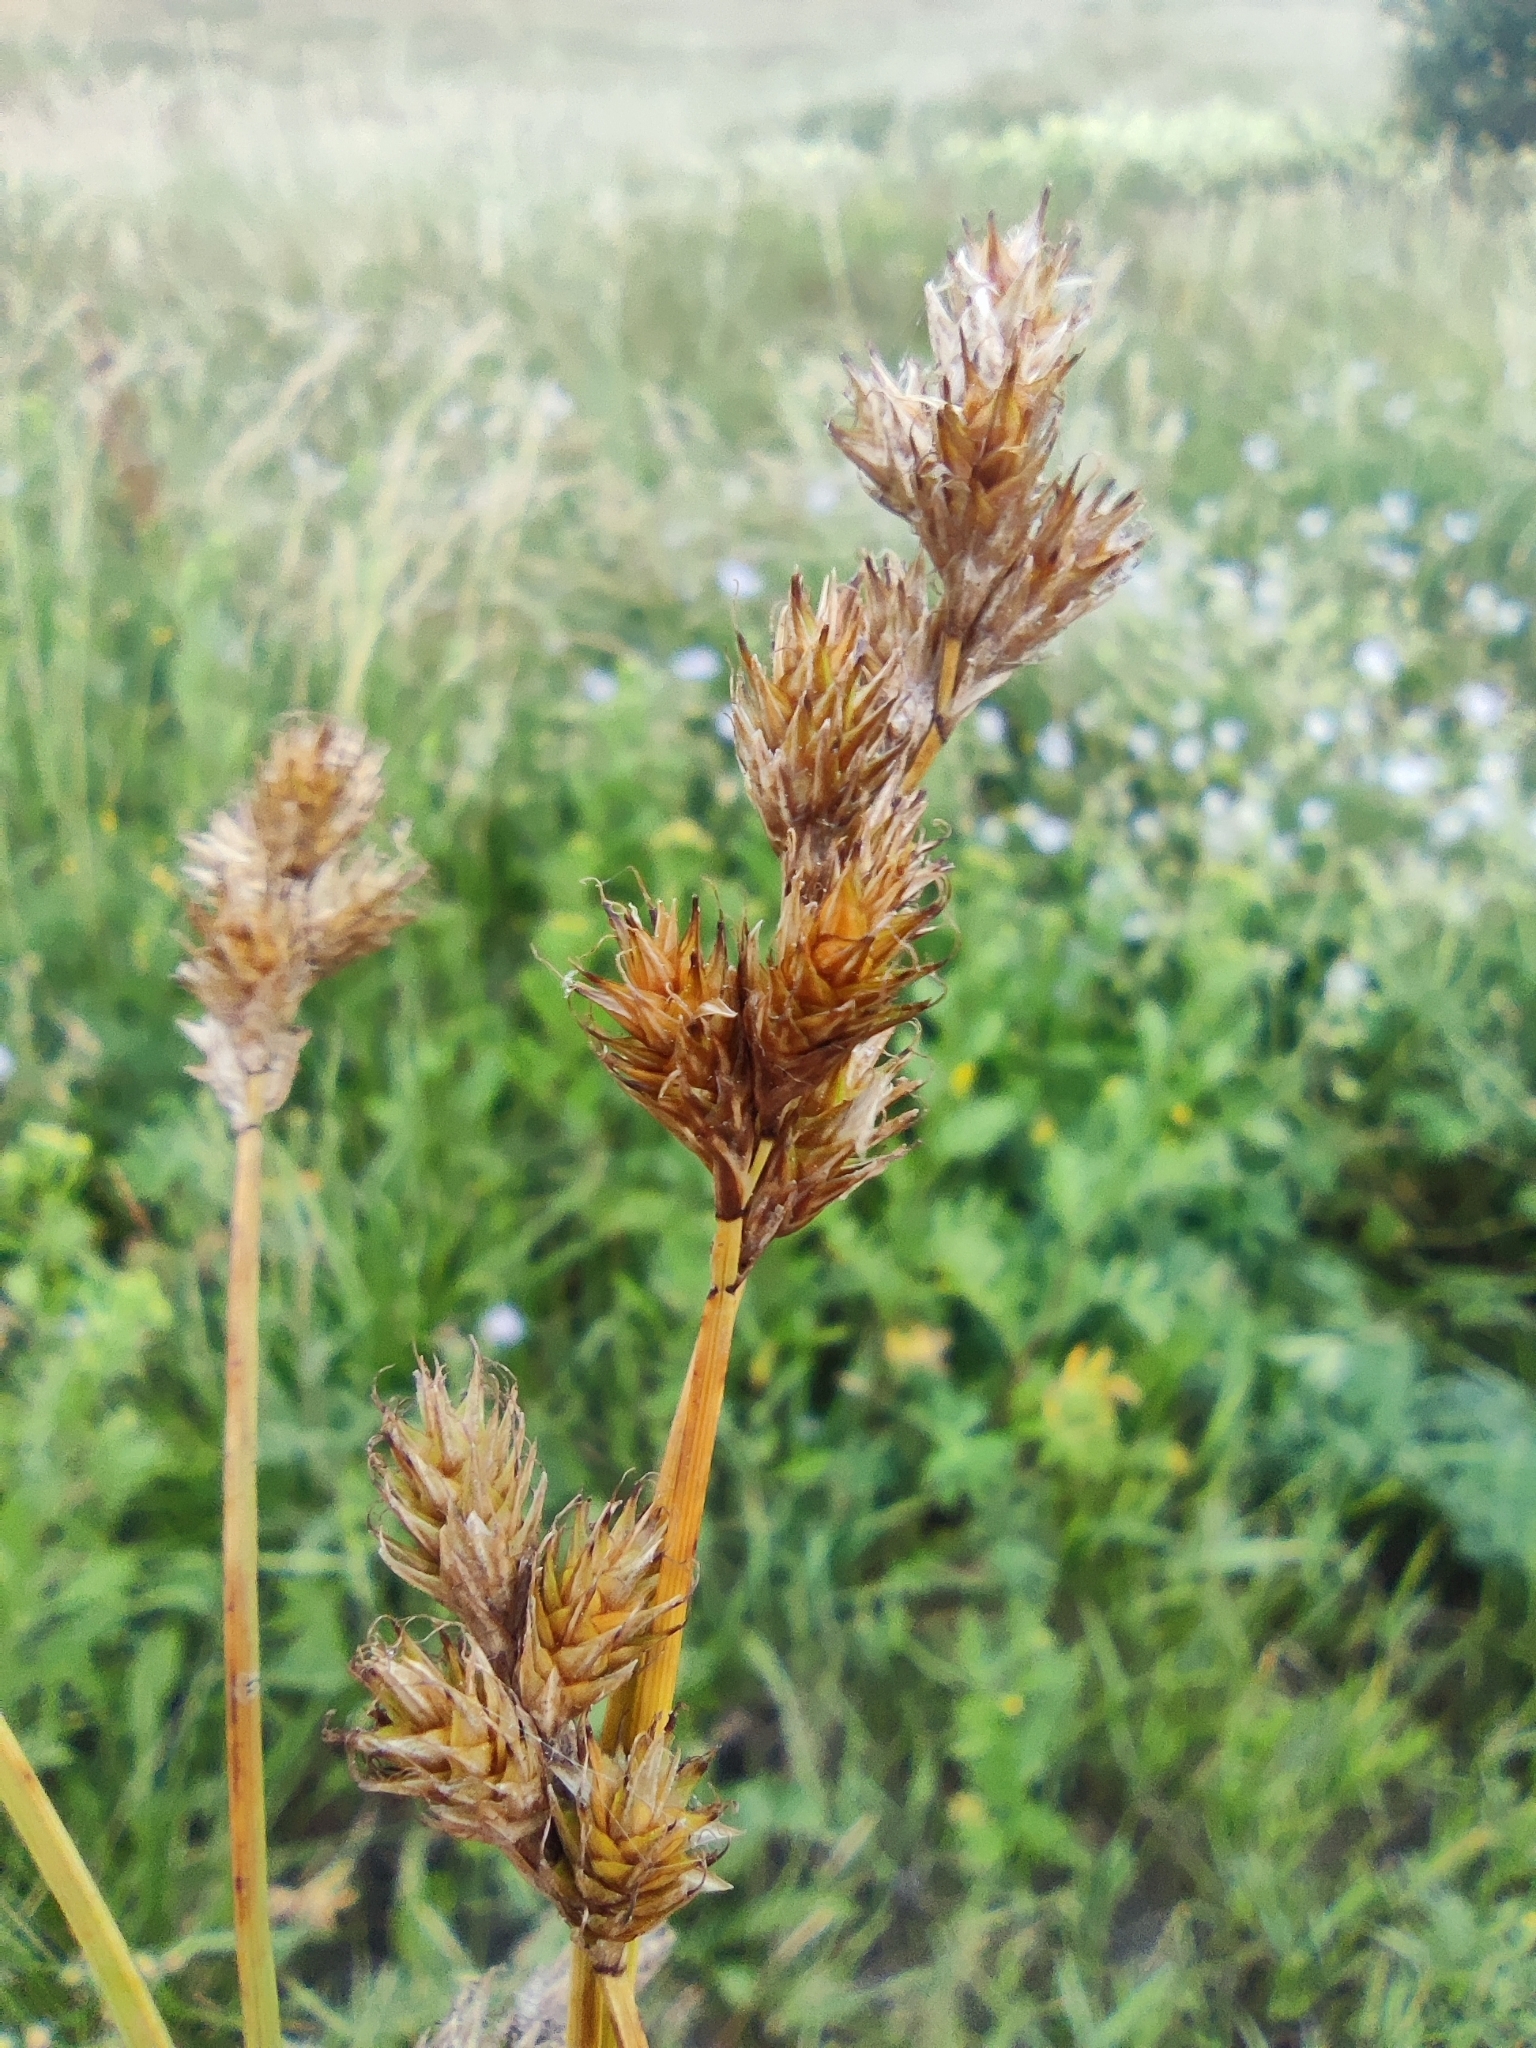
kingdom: Plantae
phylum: Tracheophyta
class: Liliopsida
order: Poales
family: Cyperaceae
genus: Carex
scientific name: Carex leporina
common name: Oval sedge
